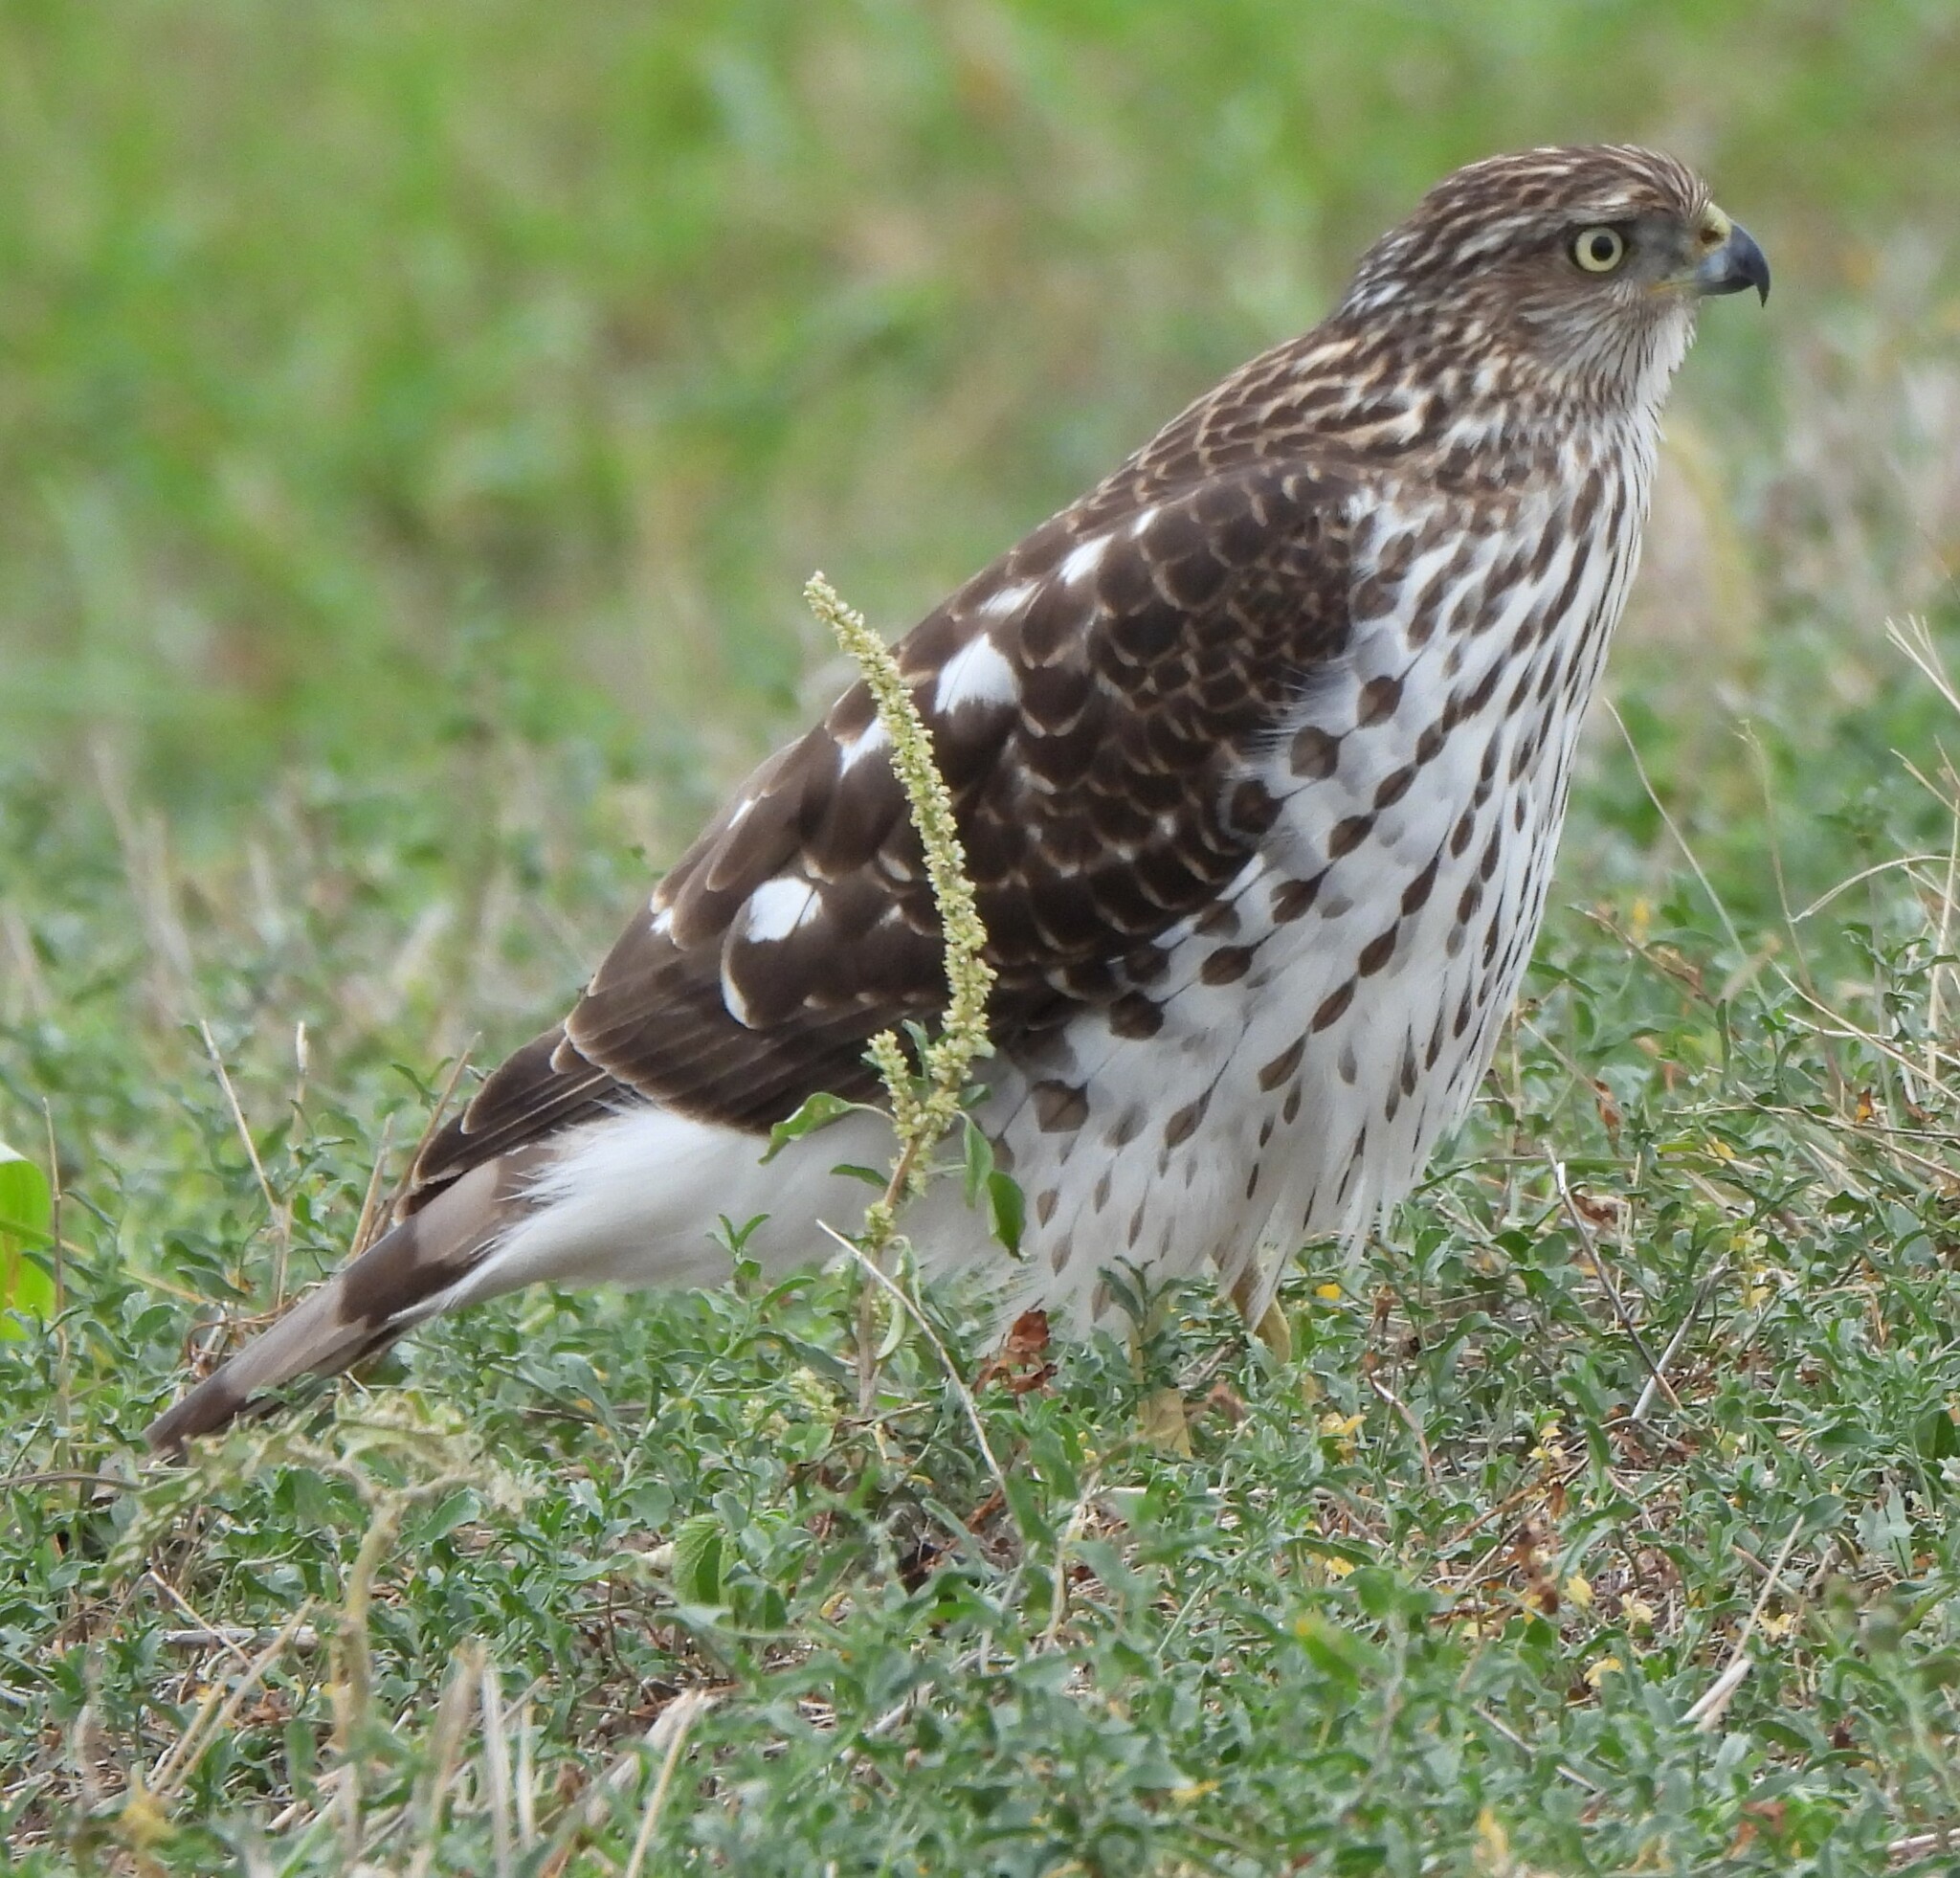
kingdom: Animalia
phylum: Chordata
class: Aves
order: Accipitriformes
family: Accipitridae
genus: Accipiter
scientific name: Accipiter cooperii
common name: Cooper's hawk
